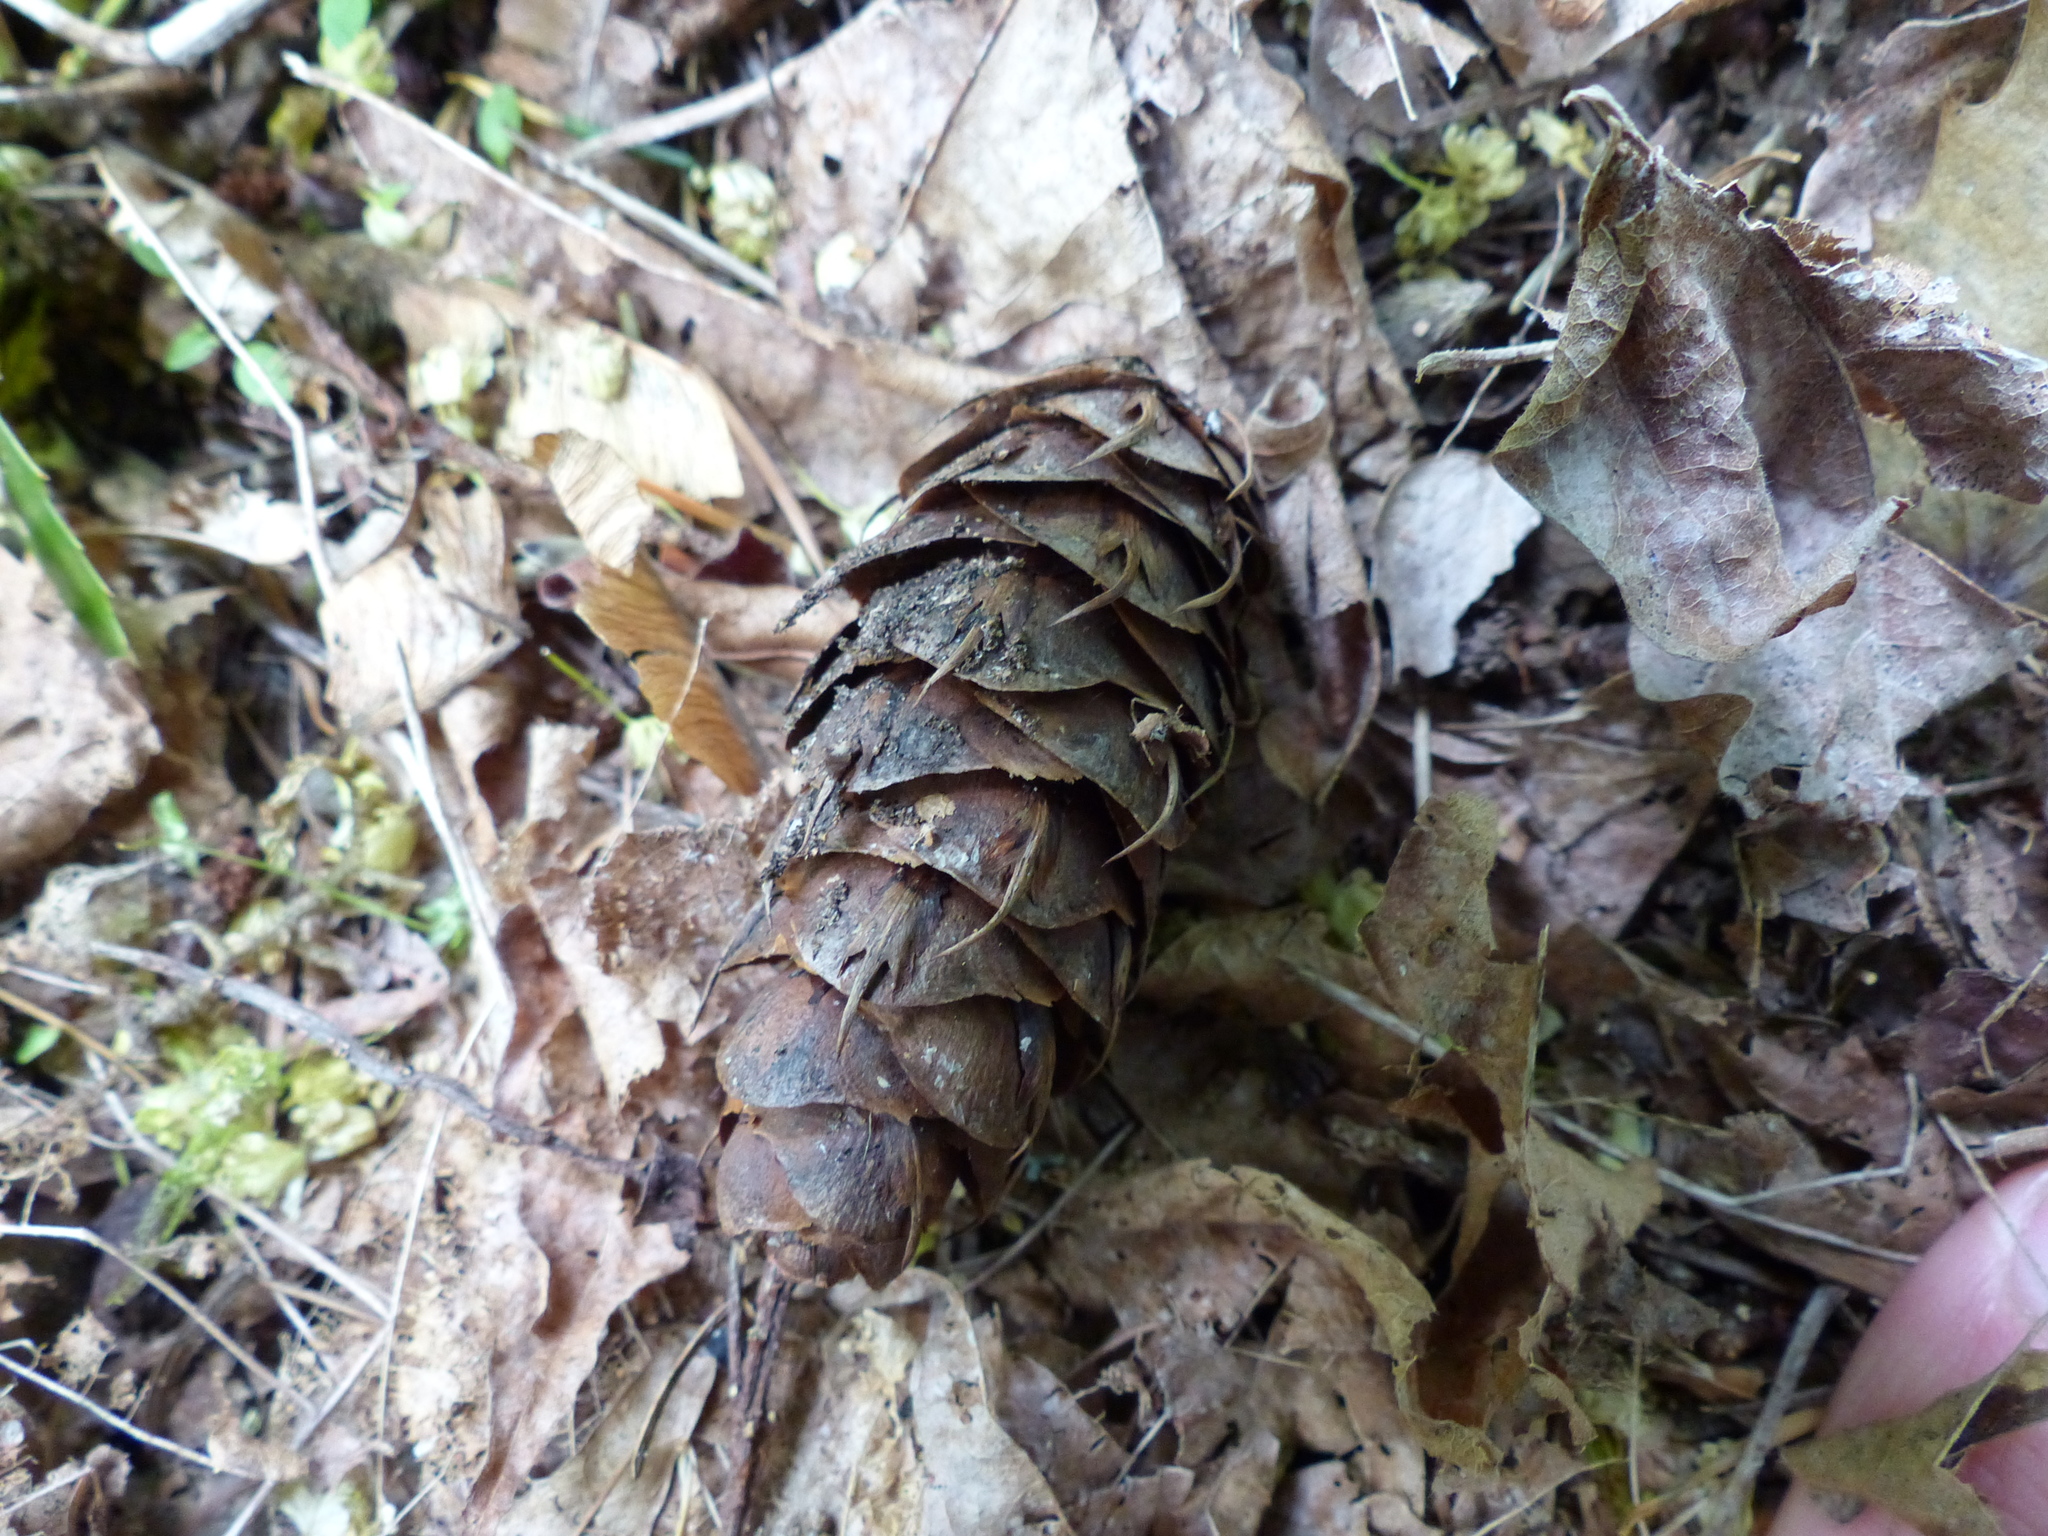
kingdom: Plantae
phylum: Tracheophyta
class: Pinopsida
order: Pinales
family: Pinaceae
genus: Pseudotsuga
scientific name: Pseudotsuga menziesii
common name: Douglas fir
